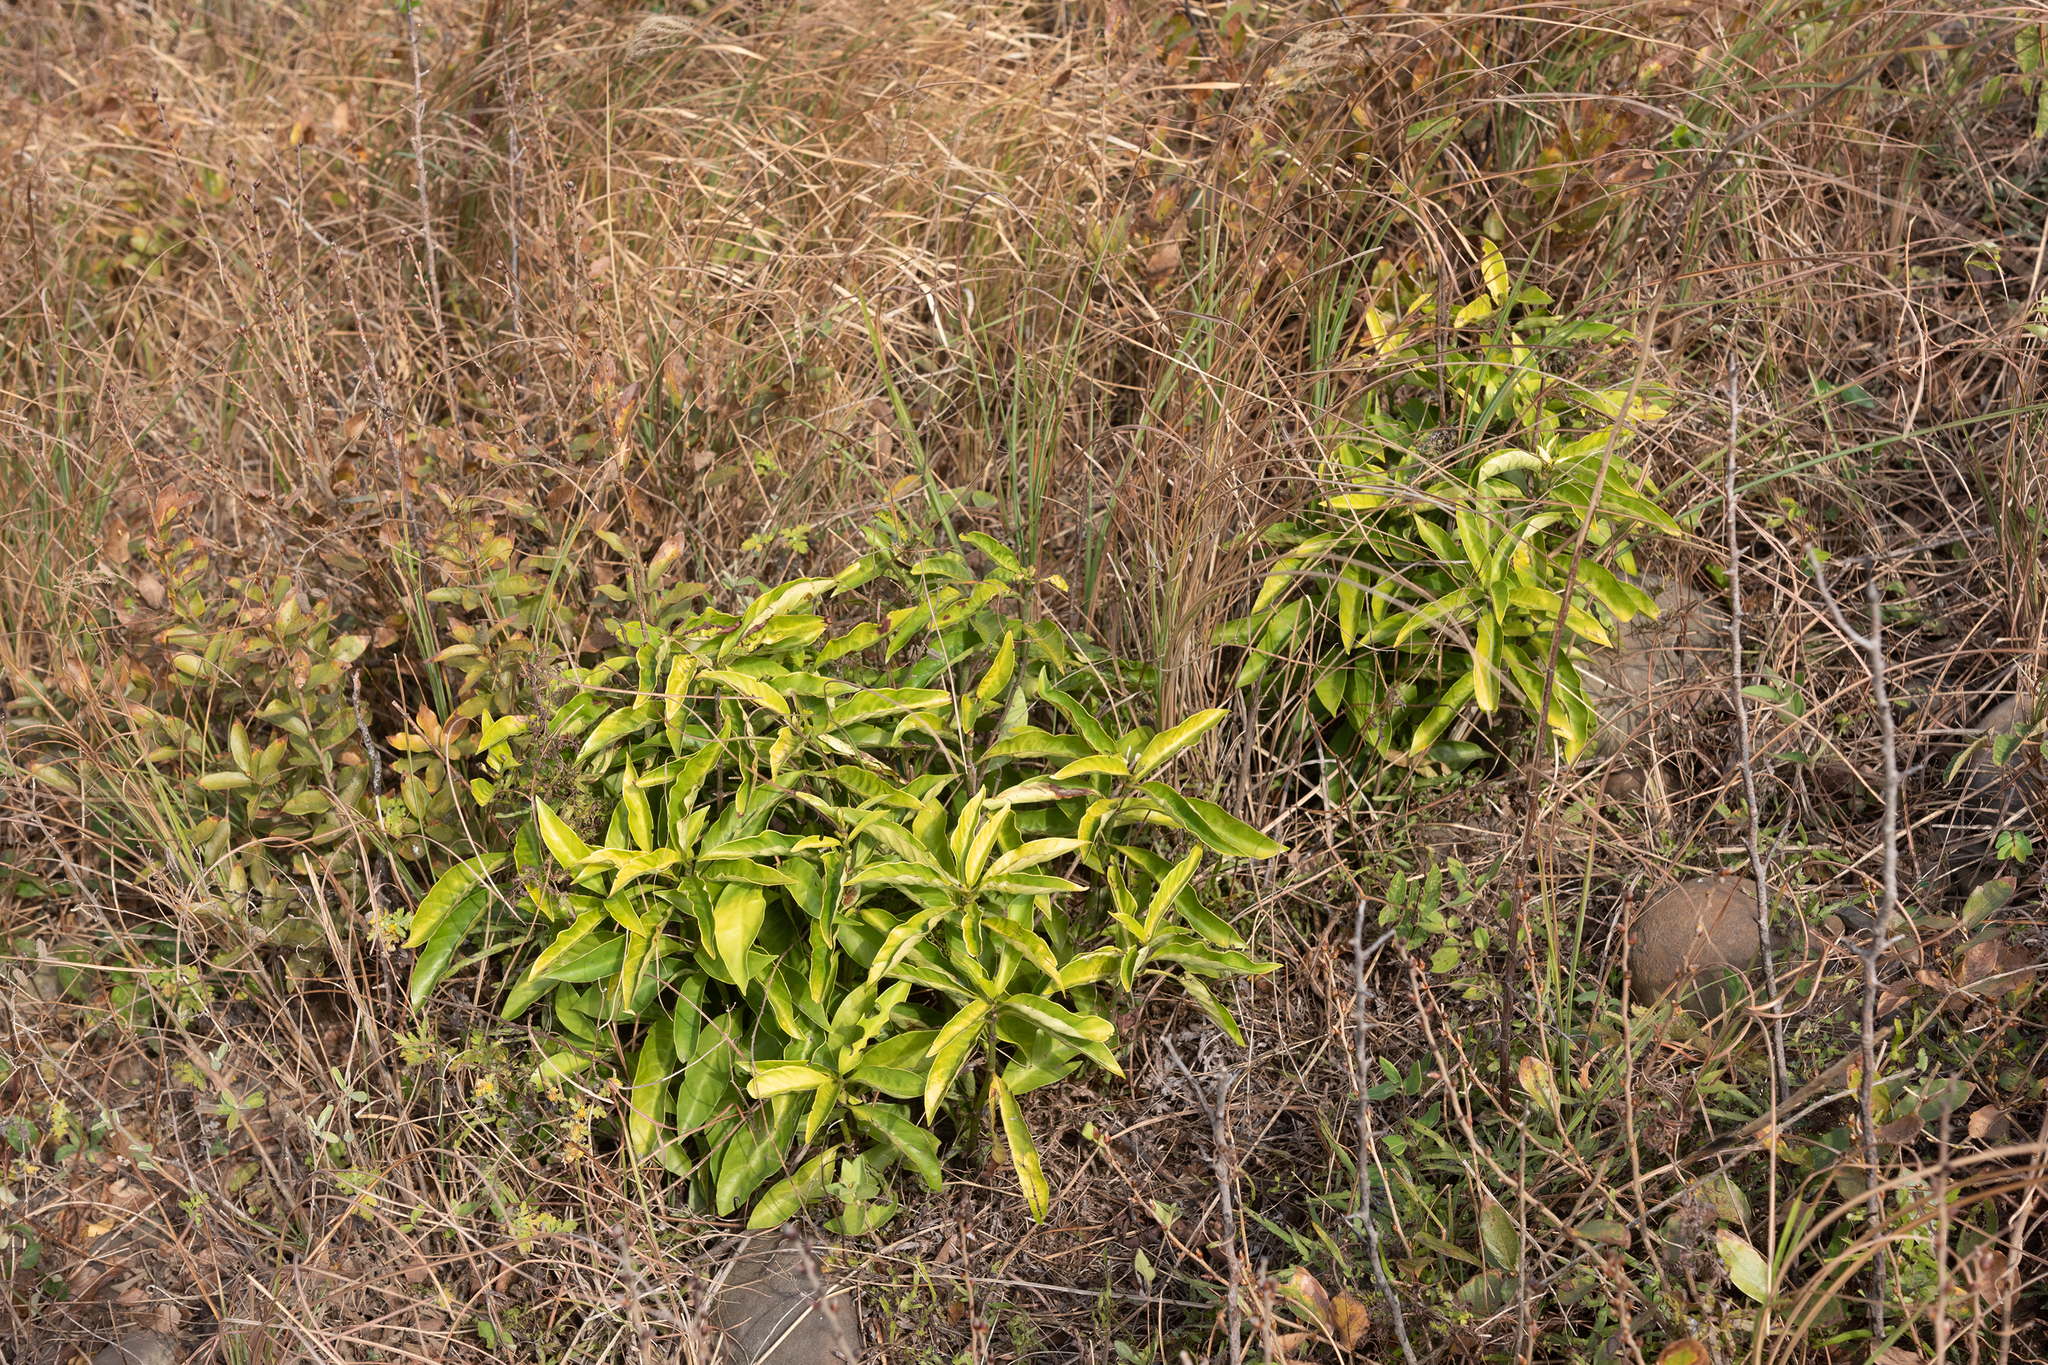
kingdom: Plantae
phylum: Tracheophyta
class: Magnoliopsida
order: Gentianales
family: Rubiaceae
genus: Psychotria
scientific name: Psychotria asiatica
